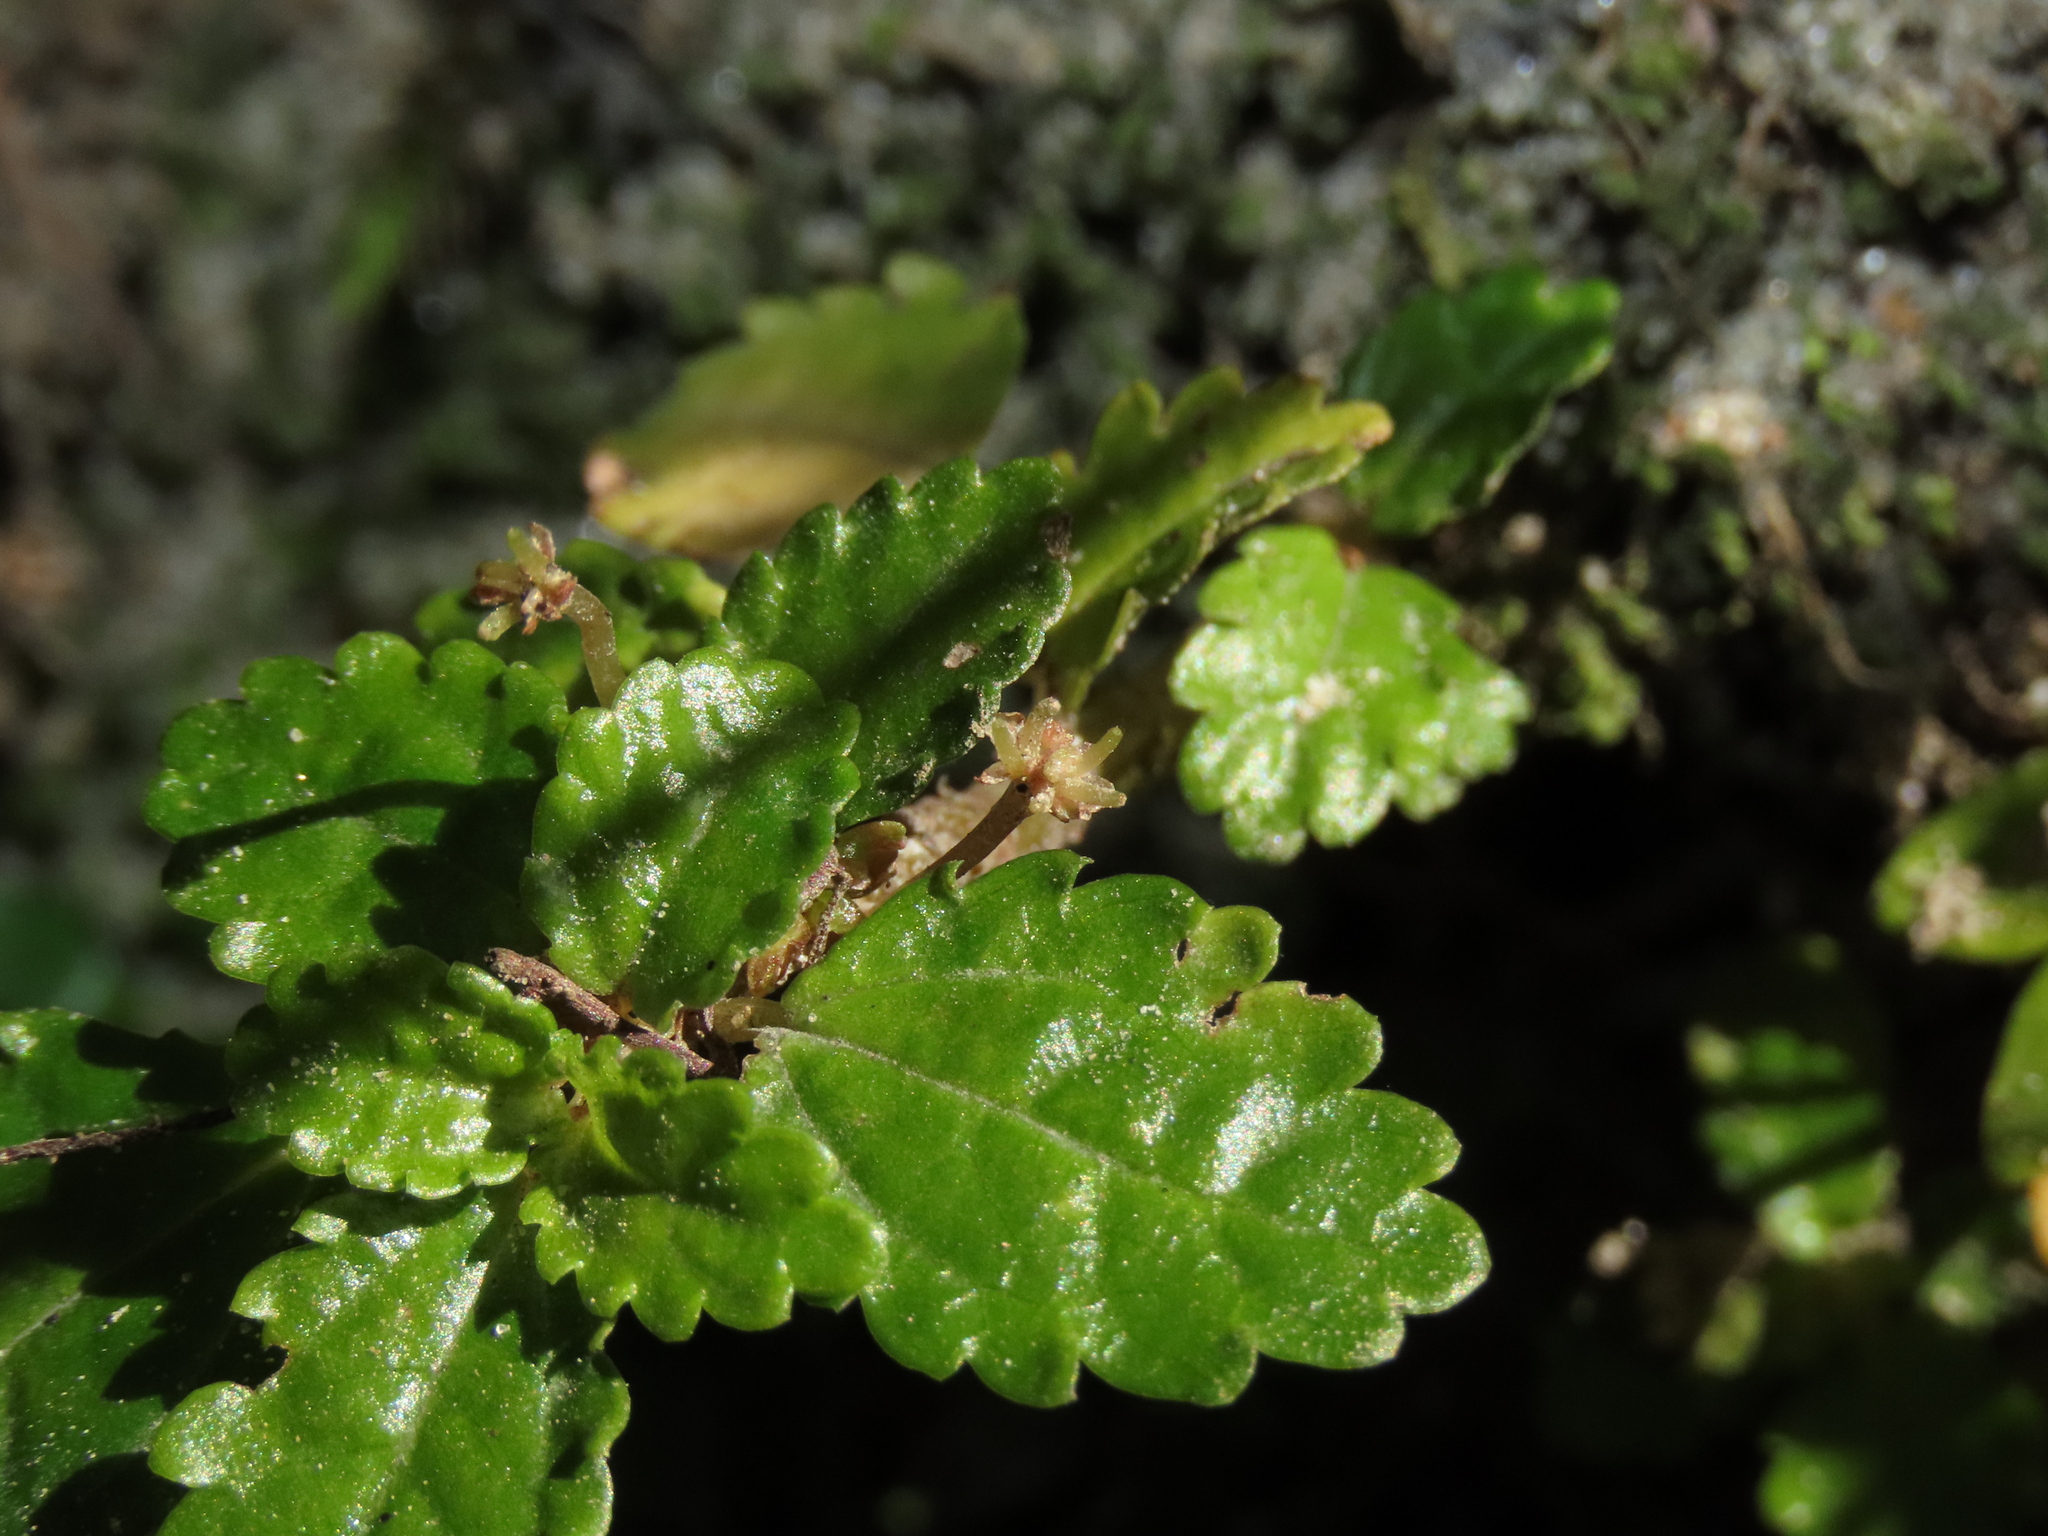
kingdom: Plantae
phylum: Tracheophyta
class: Magnoliopsida
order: Rosales
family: Urticaceae
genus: Pilea
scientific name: Pilea elliptica
